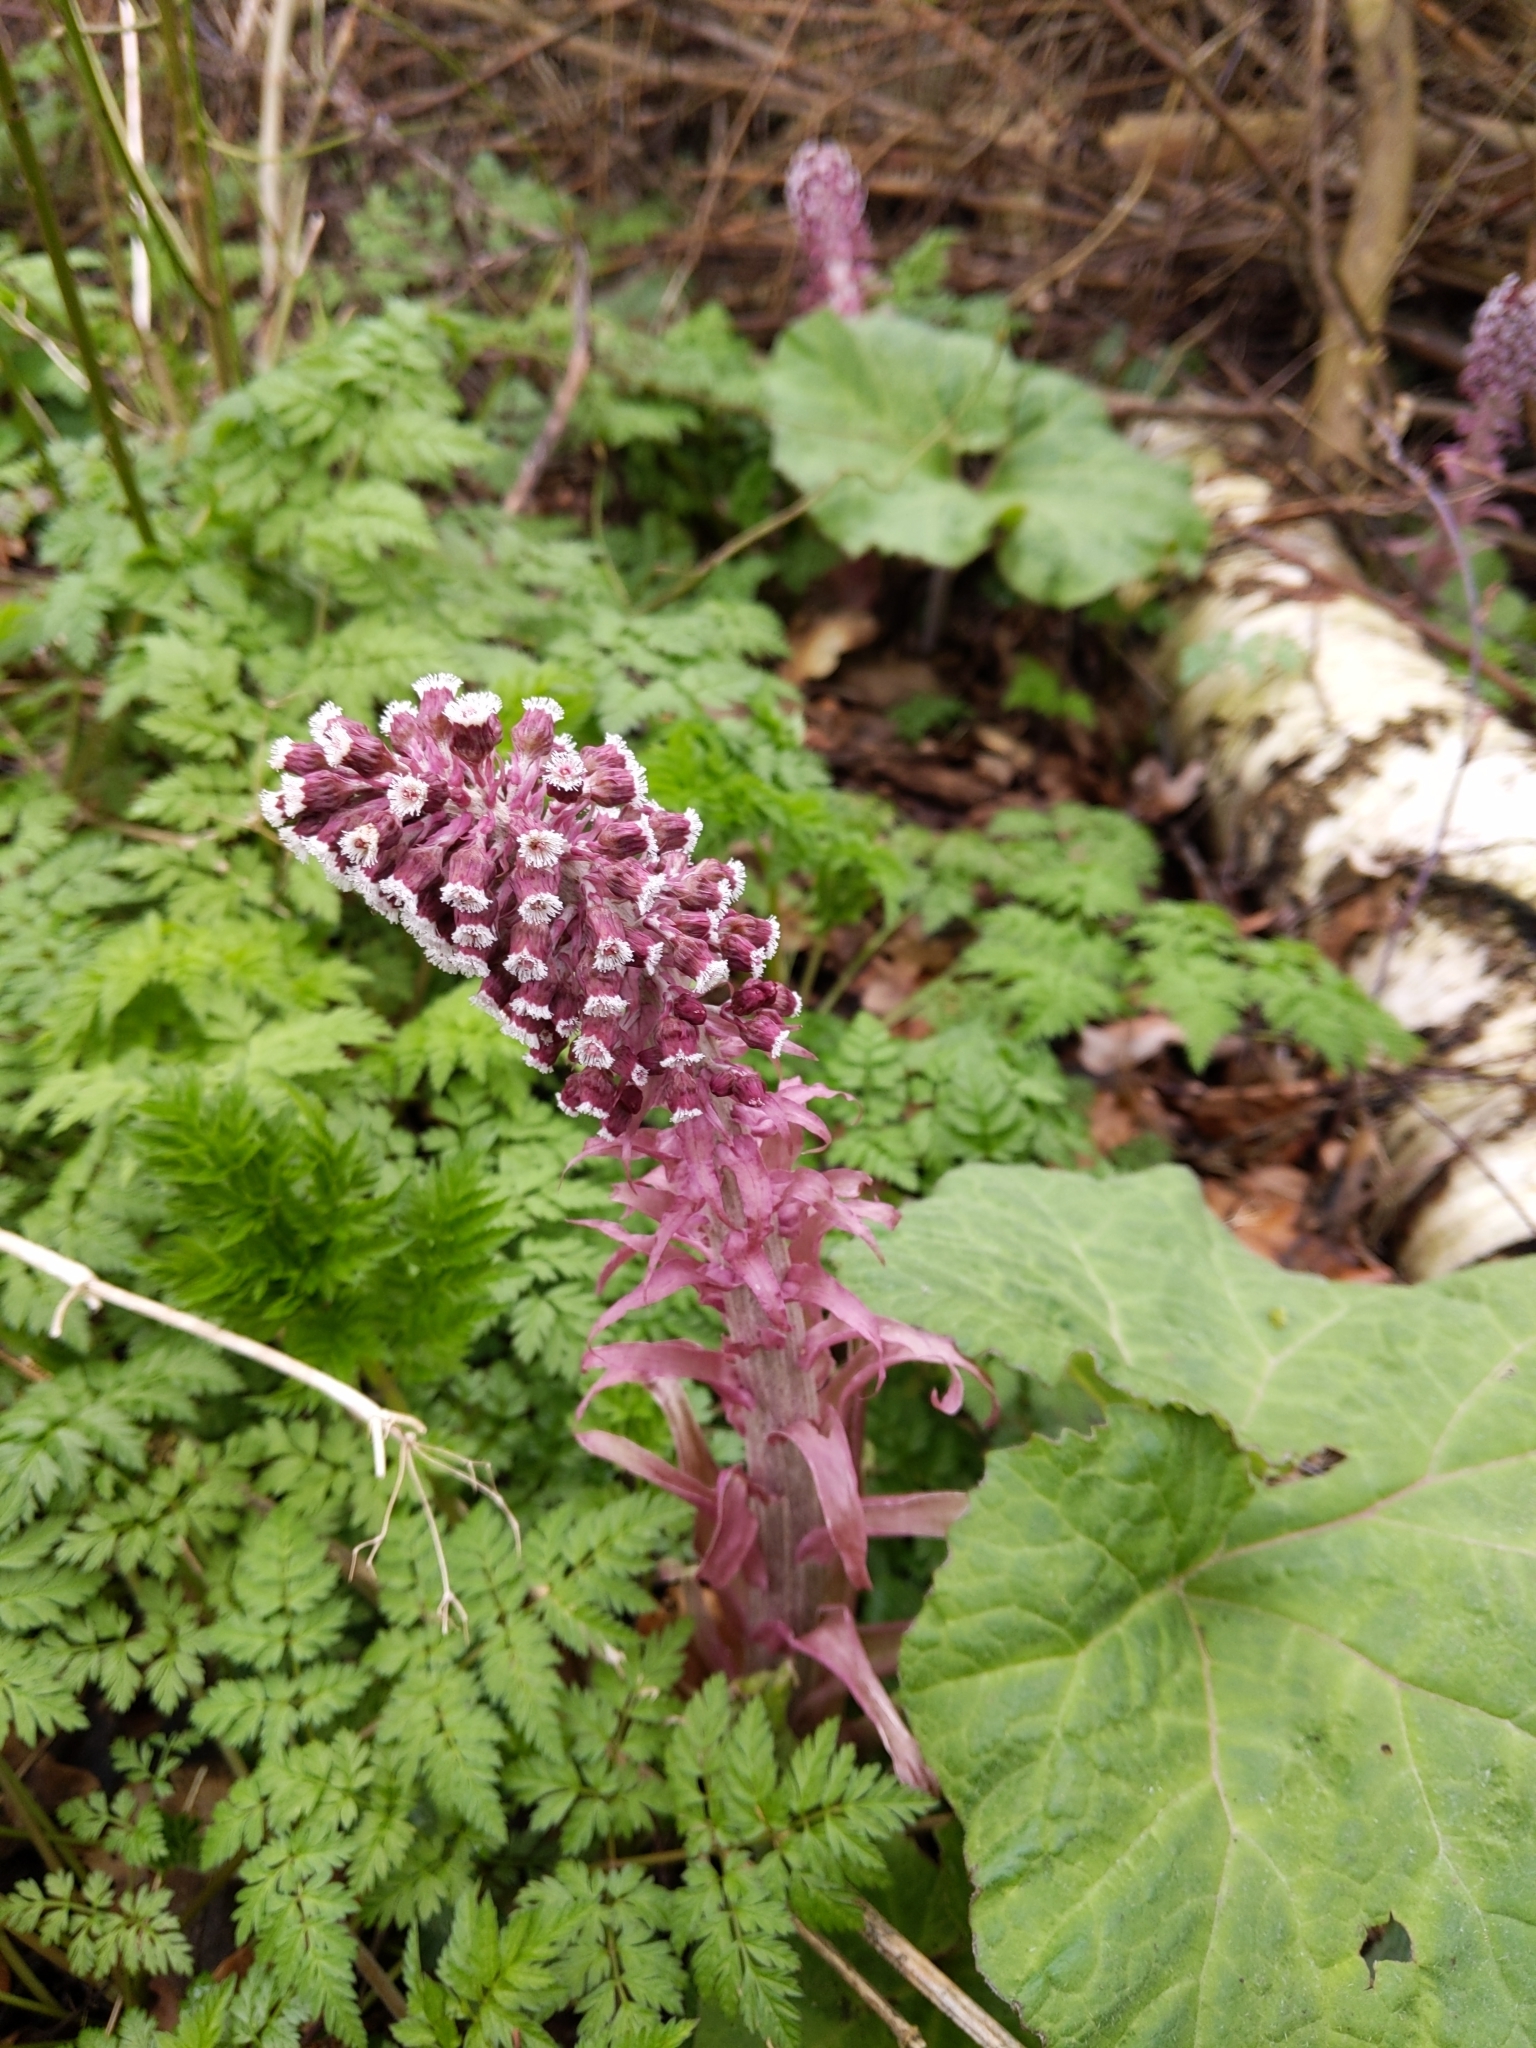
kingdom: Plantae
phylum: Tracheophyta
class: Magnoliopsida
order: Asterales
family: Asteraceae
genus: Petasites
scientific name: Petasites hybridus
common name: Butterbur
